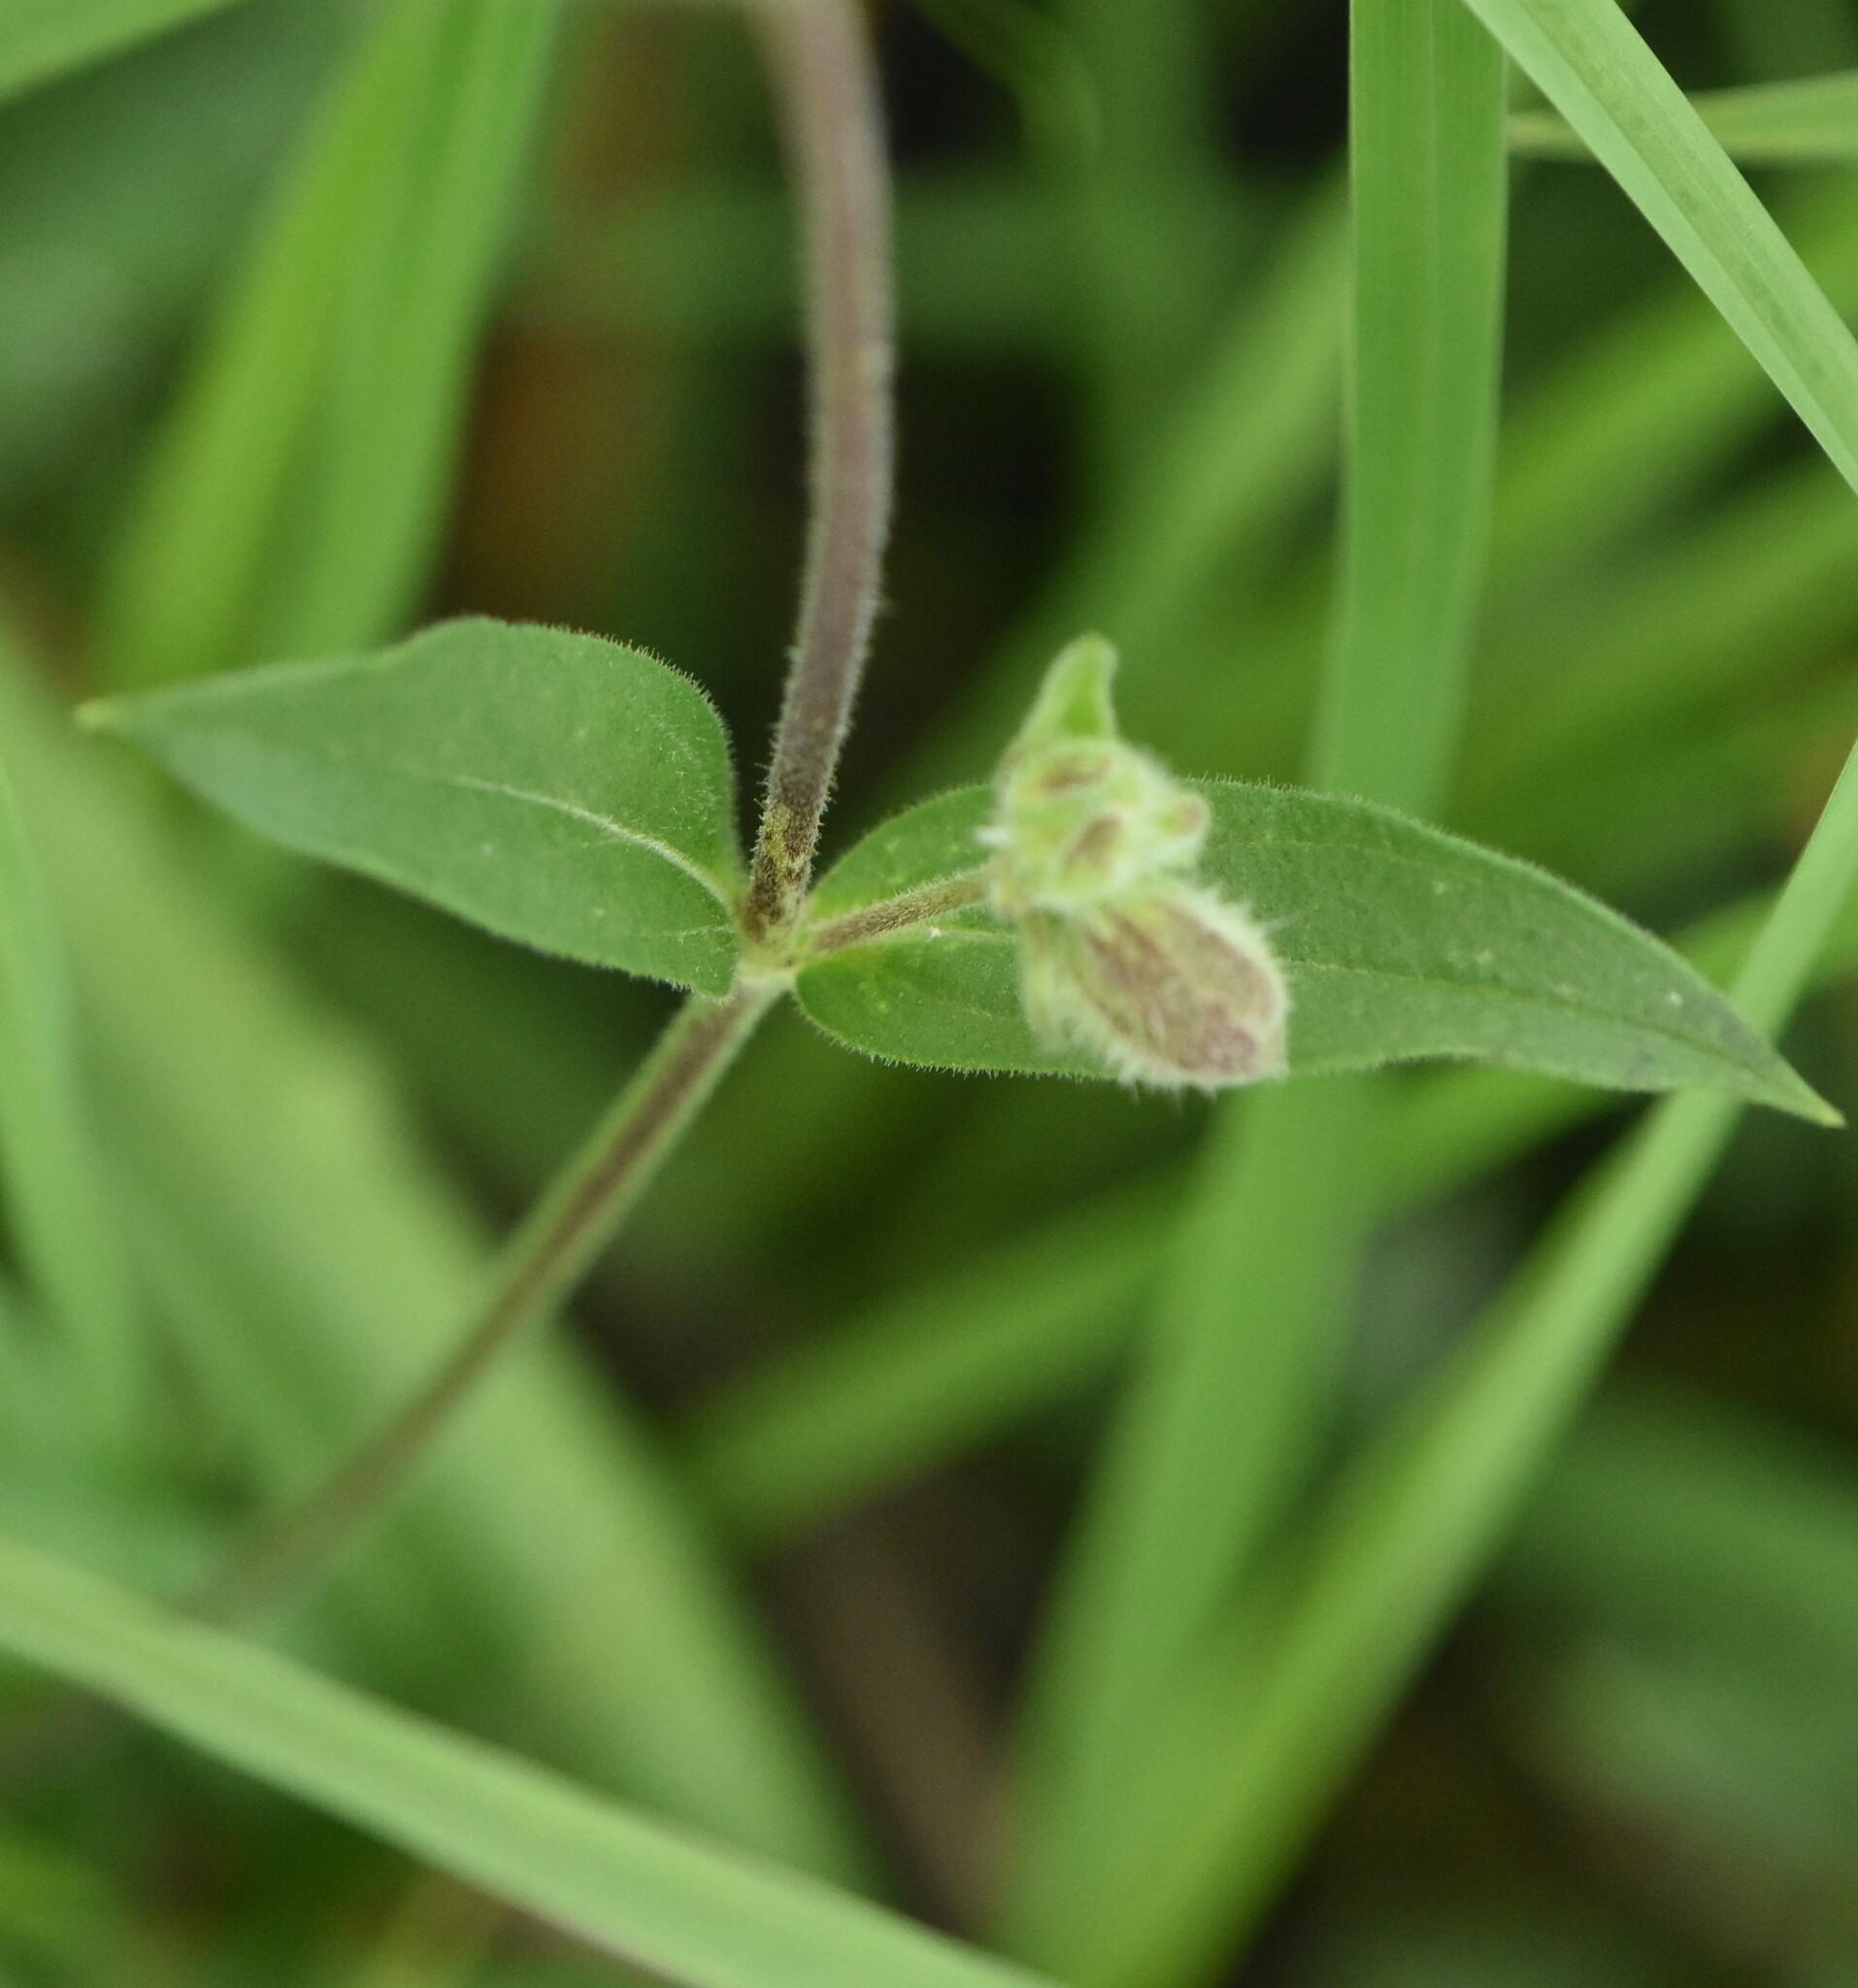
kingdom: Plantae
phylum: Tracheophyta
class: Magnoliopsida
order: Caryophyllales
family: Caryophyllaceae
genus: Silene
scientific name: Silene latifolia
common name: White campion
